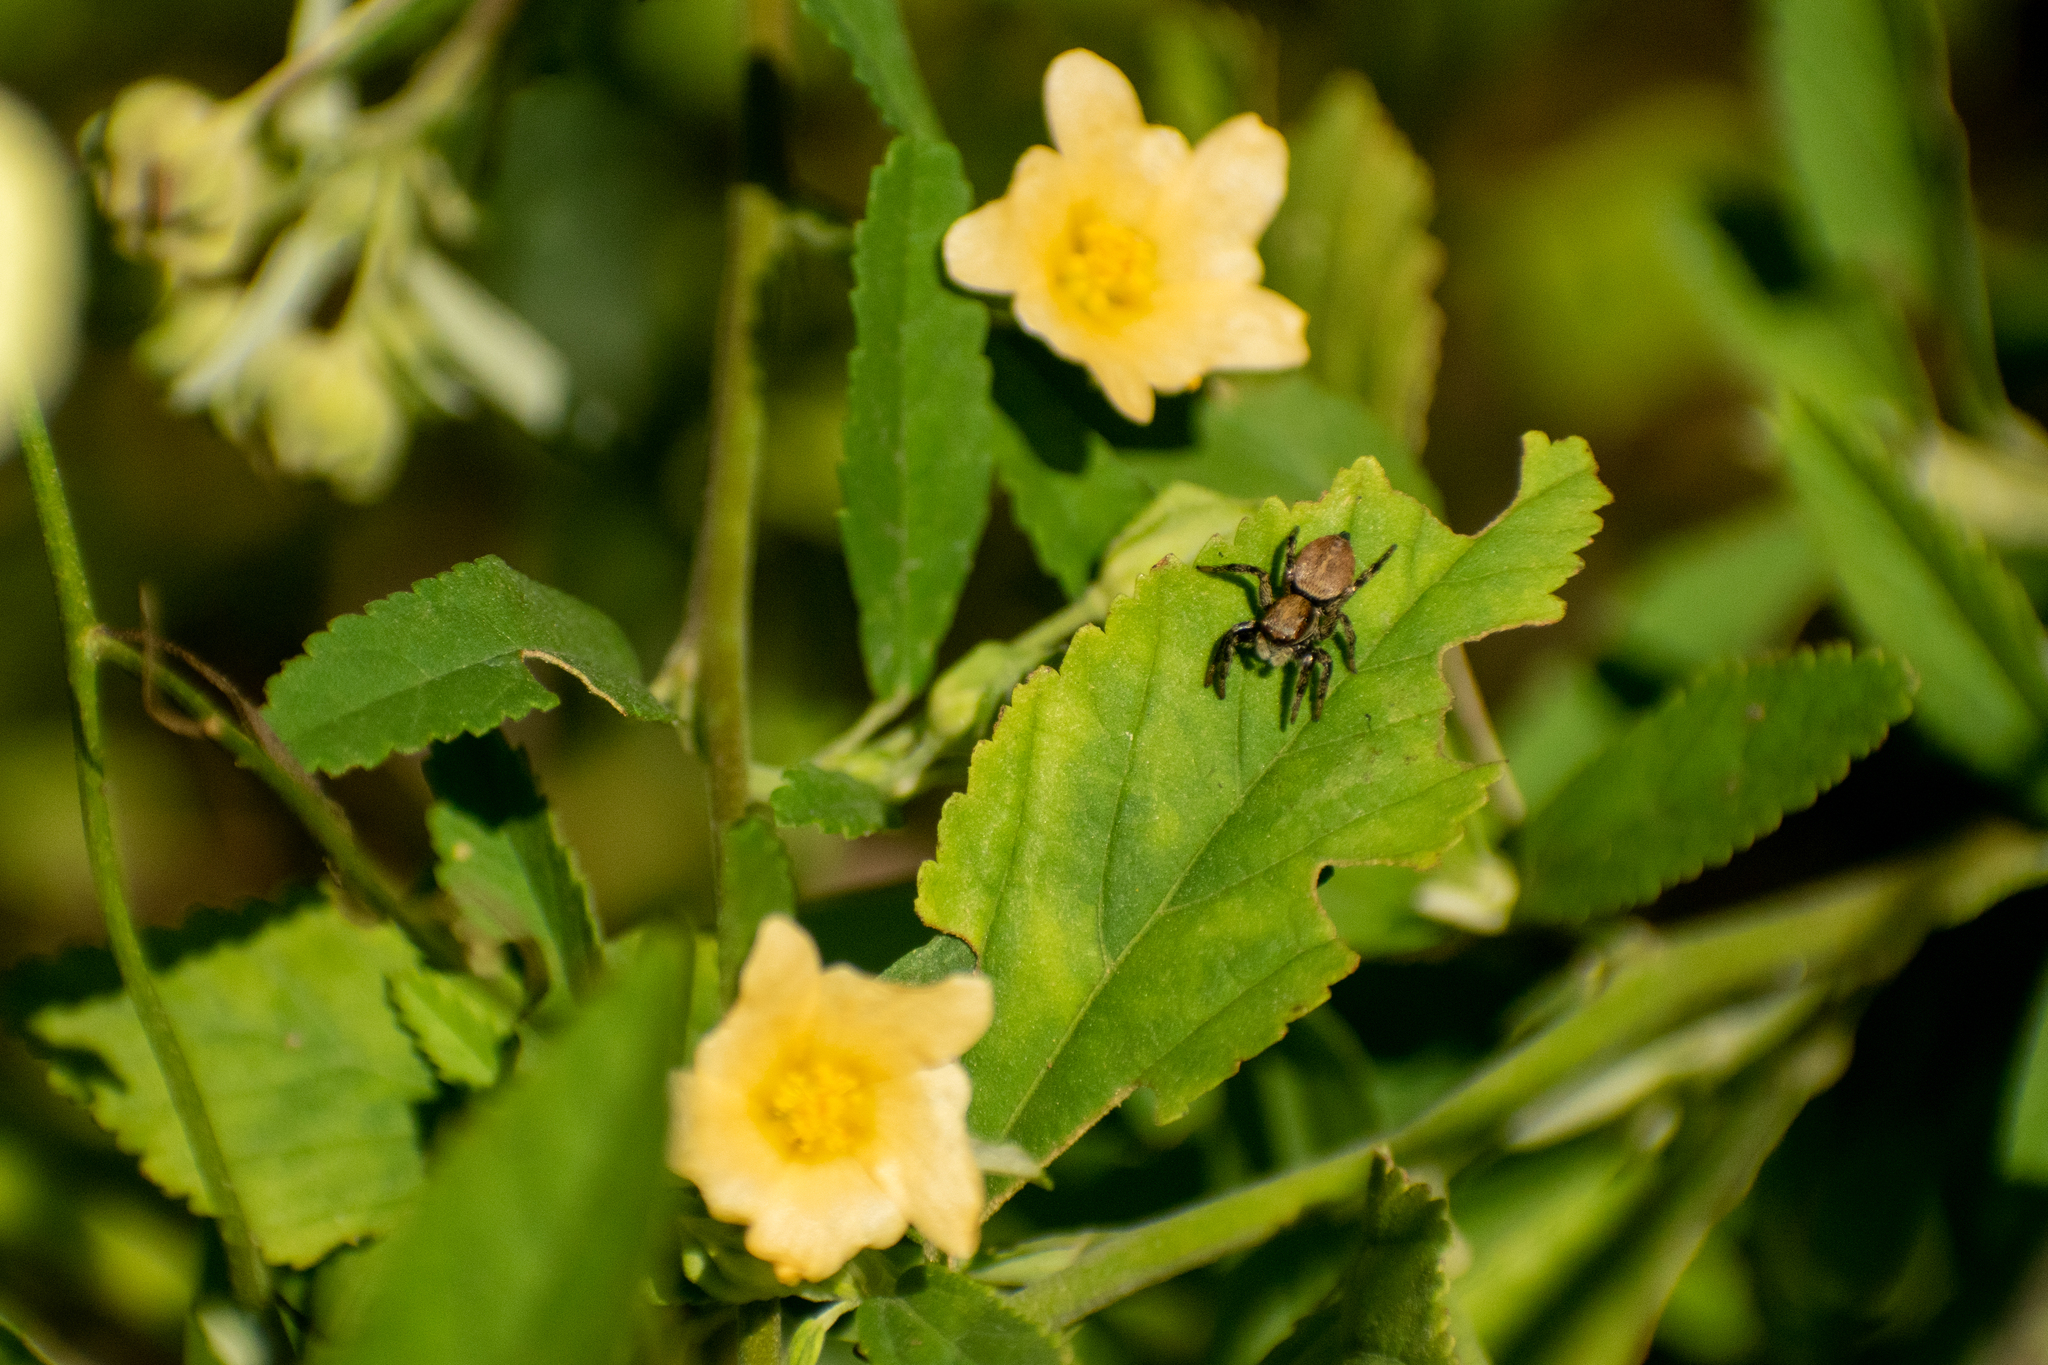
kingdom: Animalia
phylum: Arthropoda
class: Arachnida
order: Araneae
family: Salticidae
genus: Phiale
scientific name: Phiale roburifoliata
